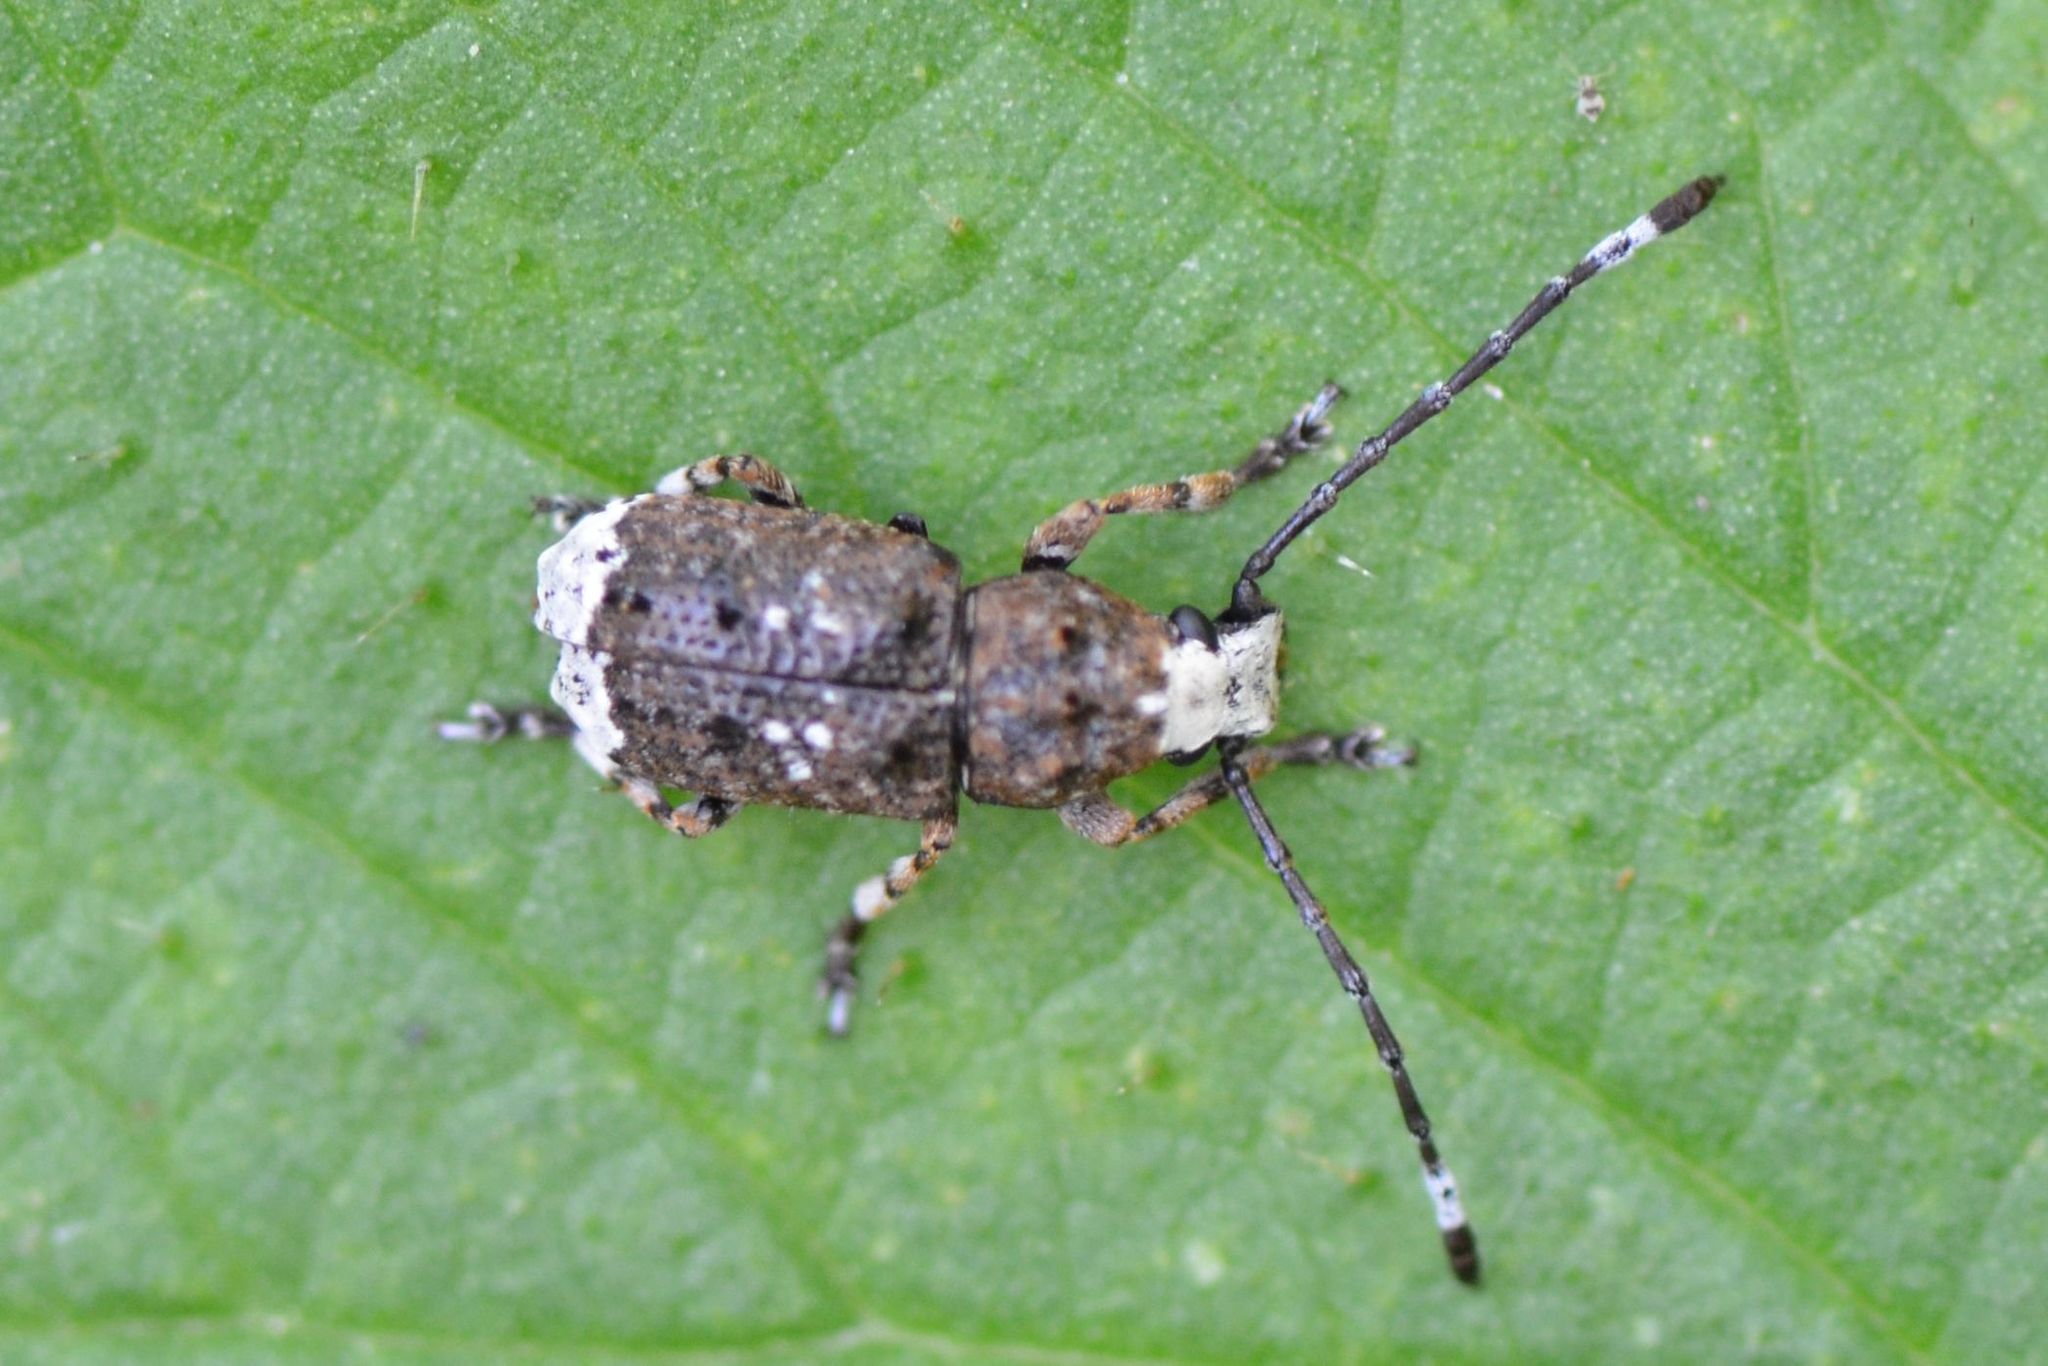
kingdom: Animalia
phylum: Arthropoda
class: Insecta
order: Coleoptera
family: Anthribidae
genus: Platystomos
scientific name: Platystomos albinus
